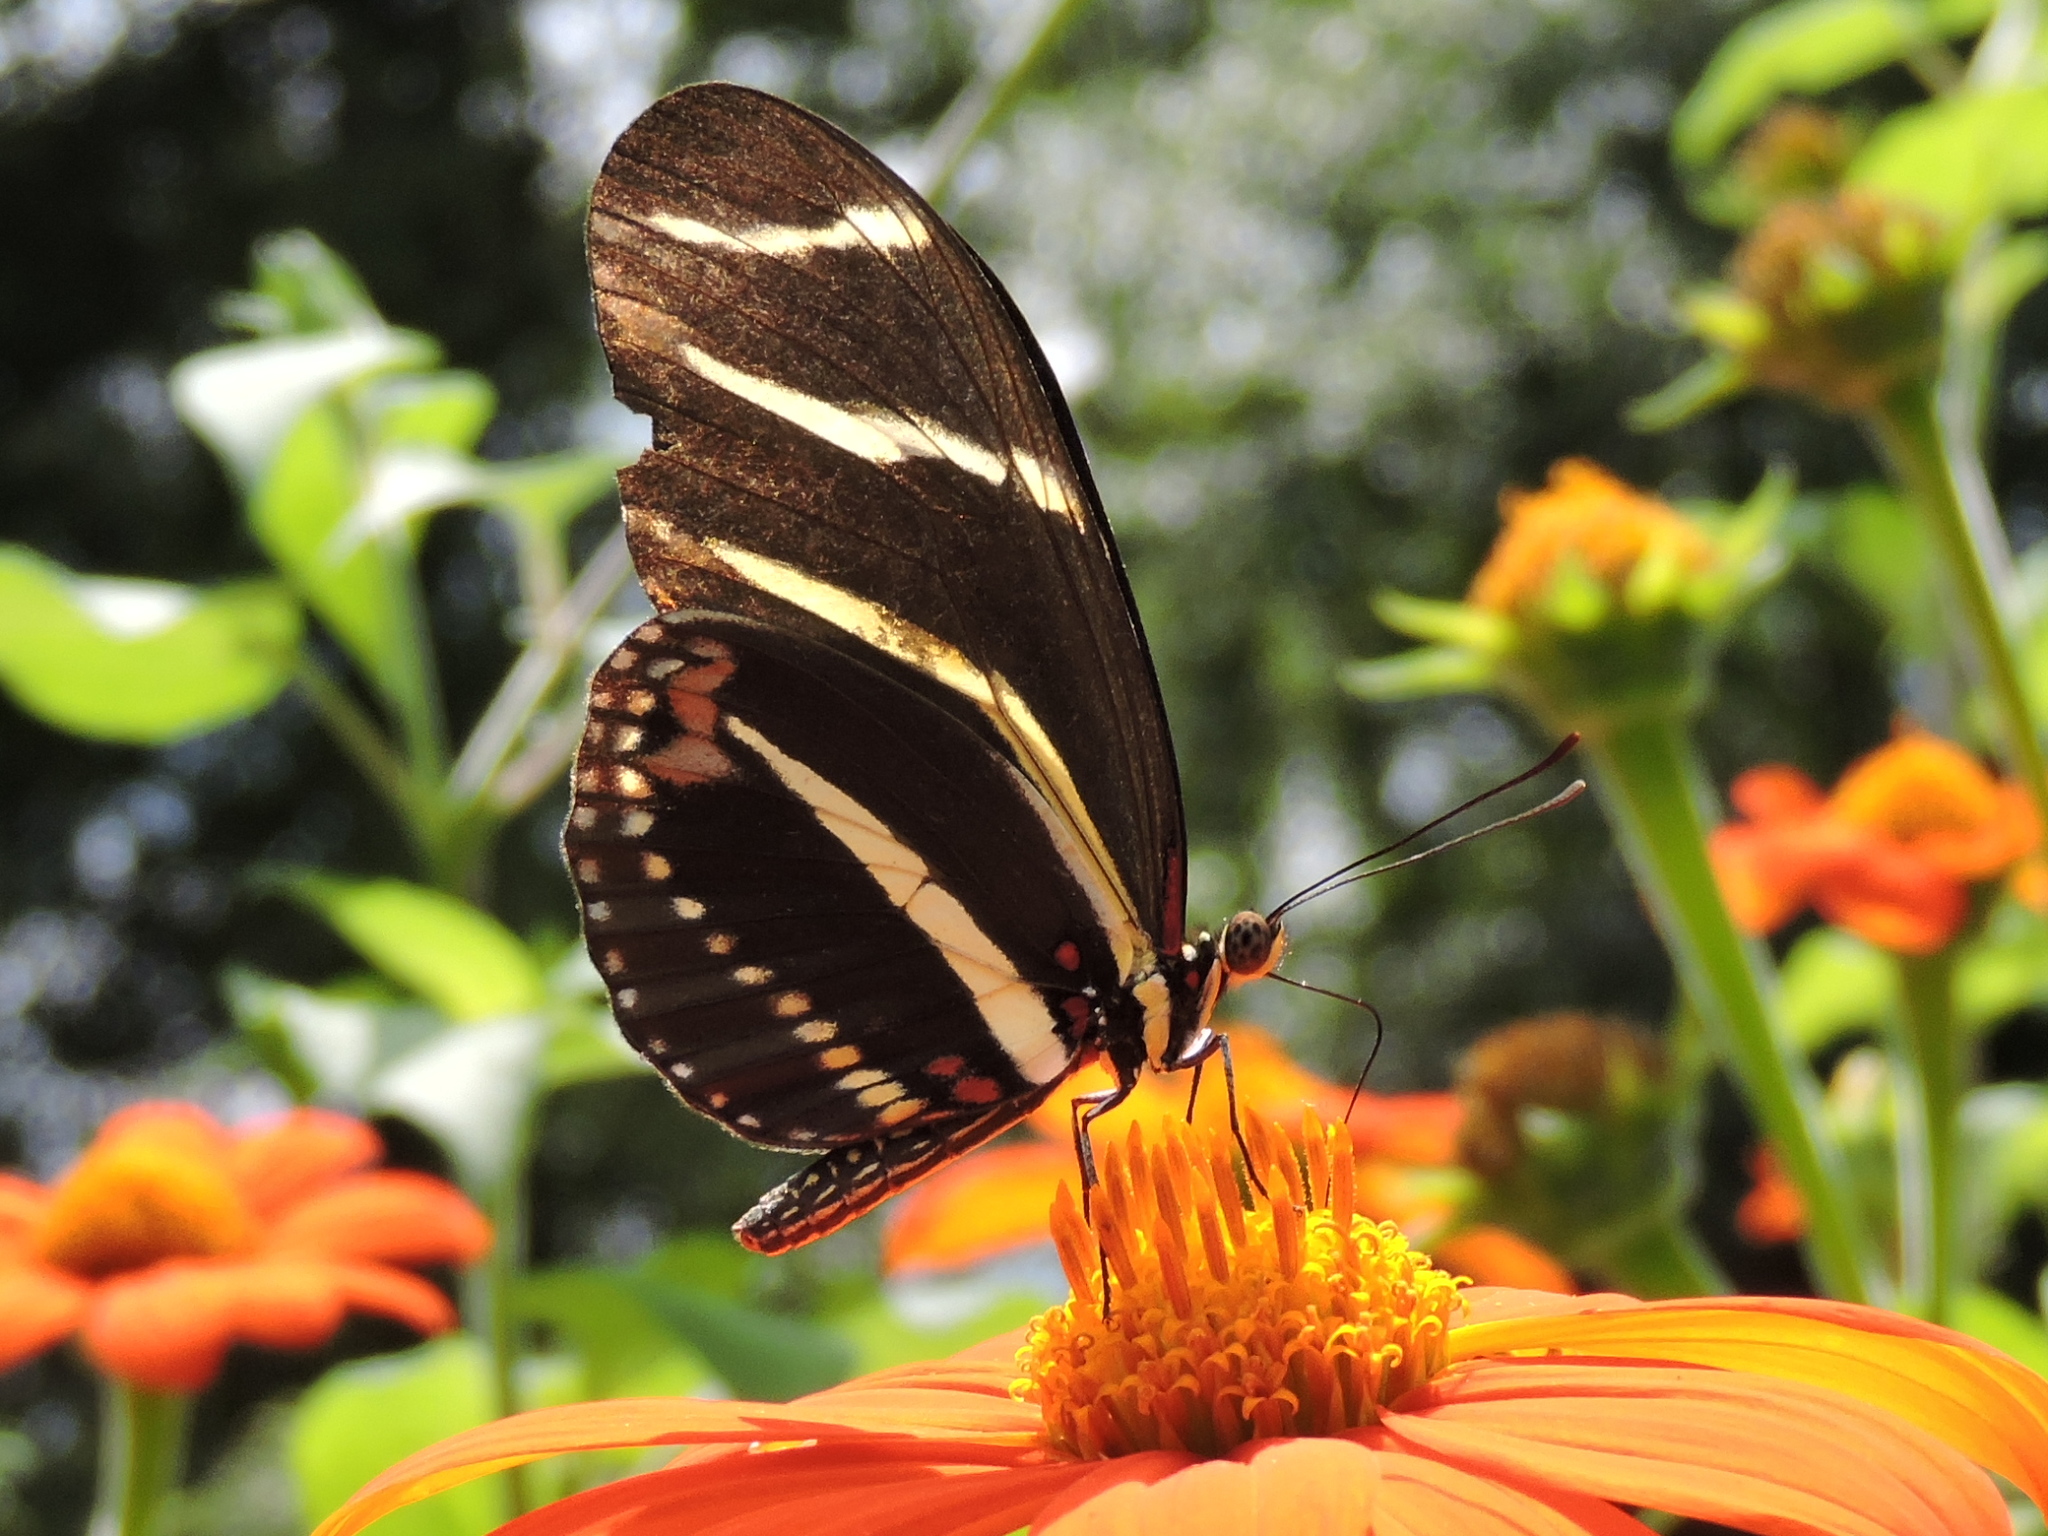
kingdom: Animalia
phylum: Arthropoda
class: Insecta
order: Lepidoptera
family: Nymphalidae
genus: Heliconius
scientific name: Heliconius charithonia
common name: Zebra long wing
